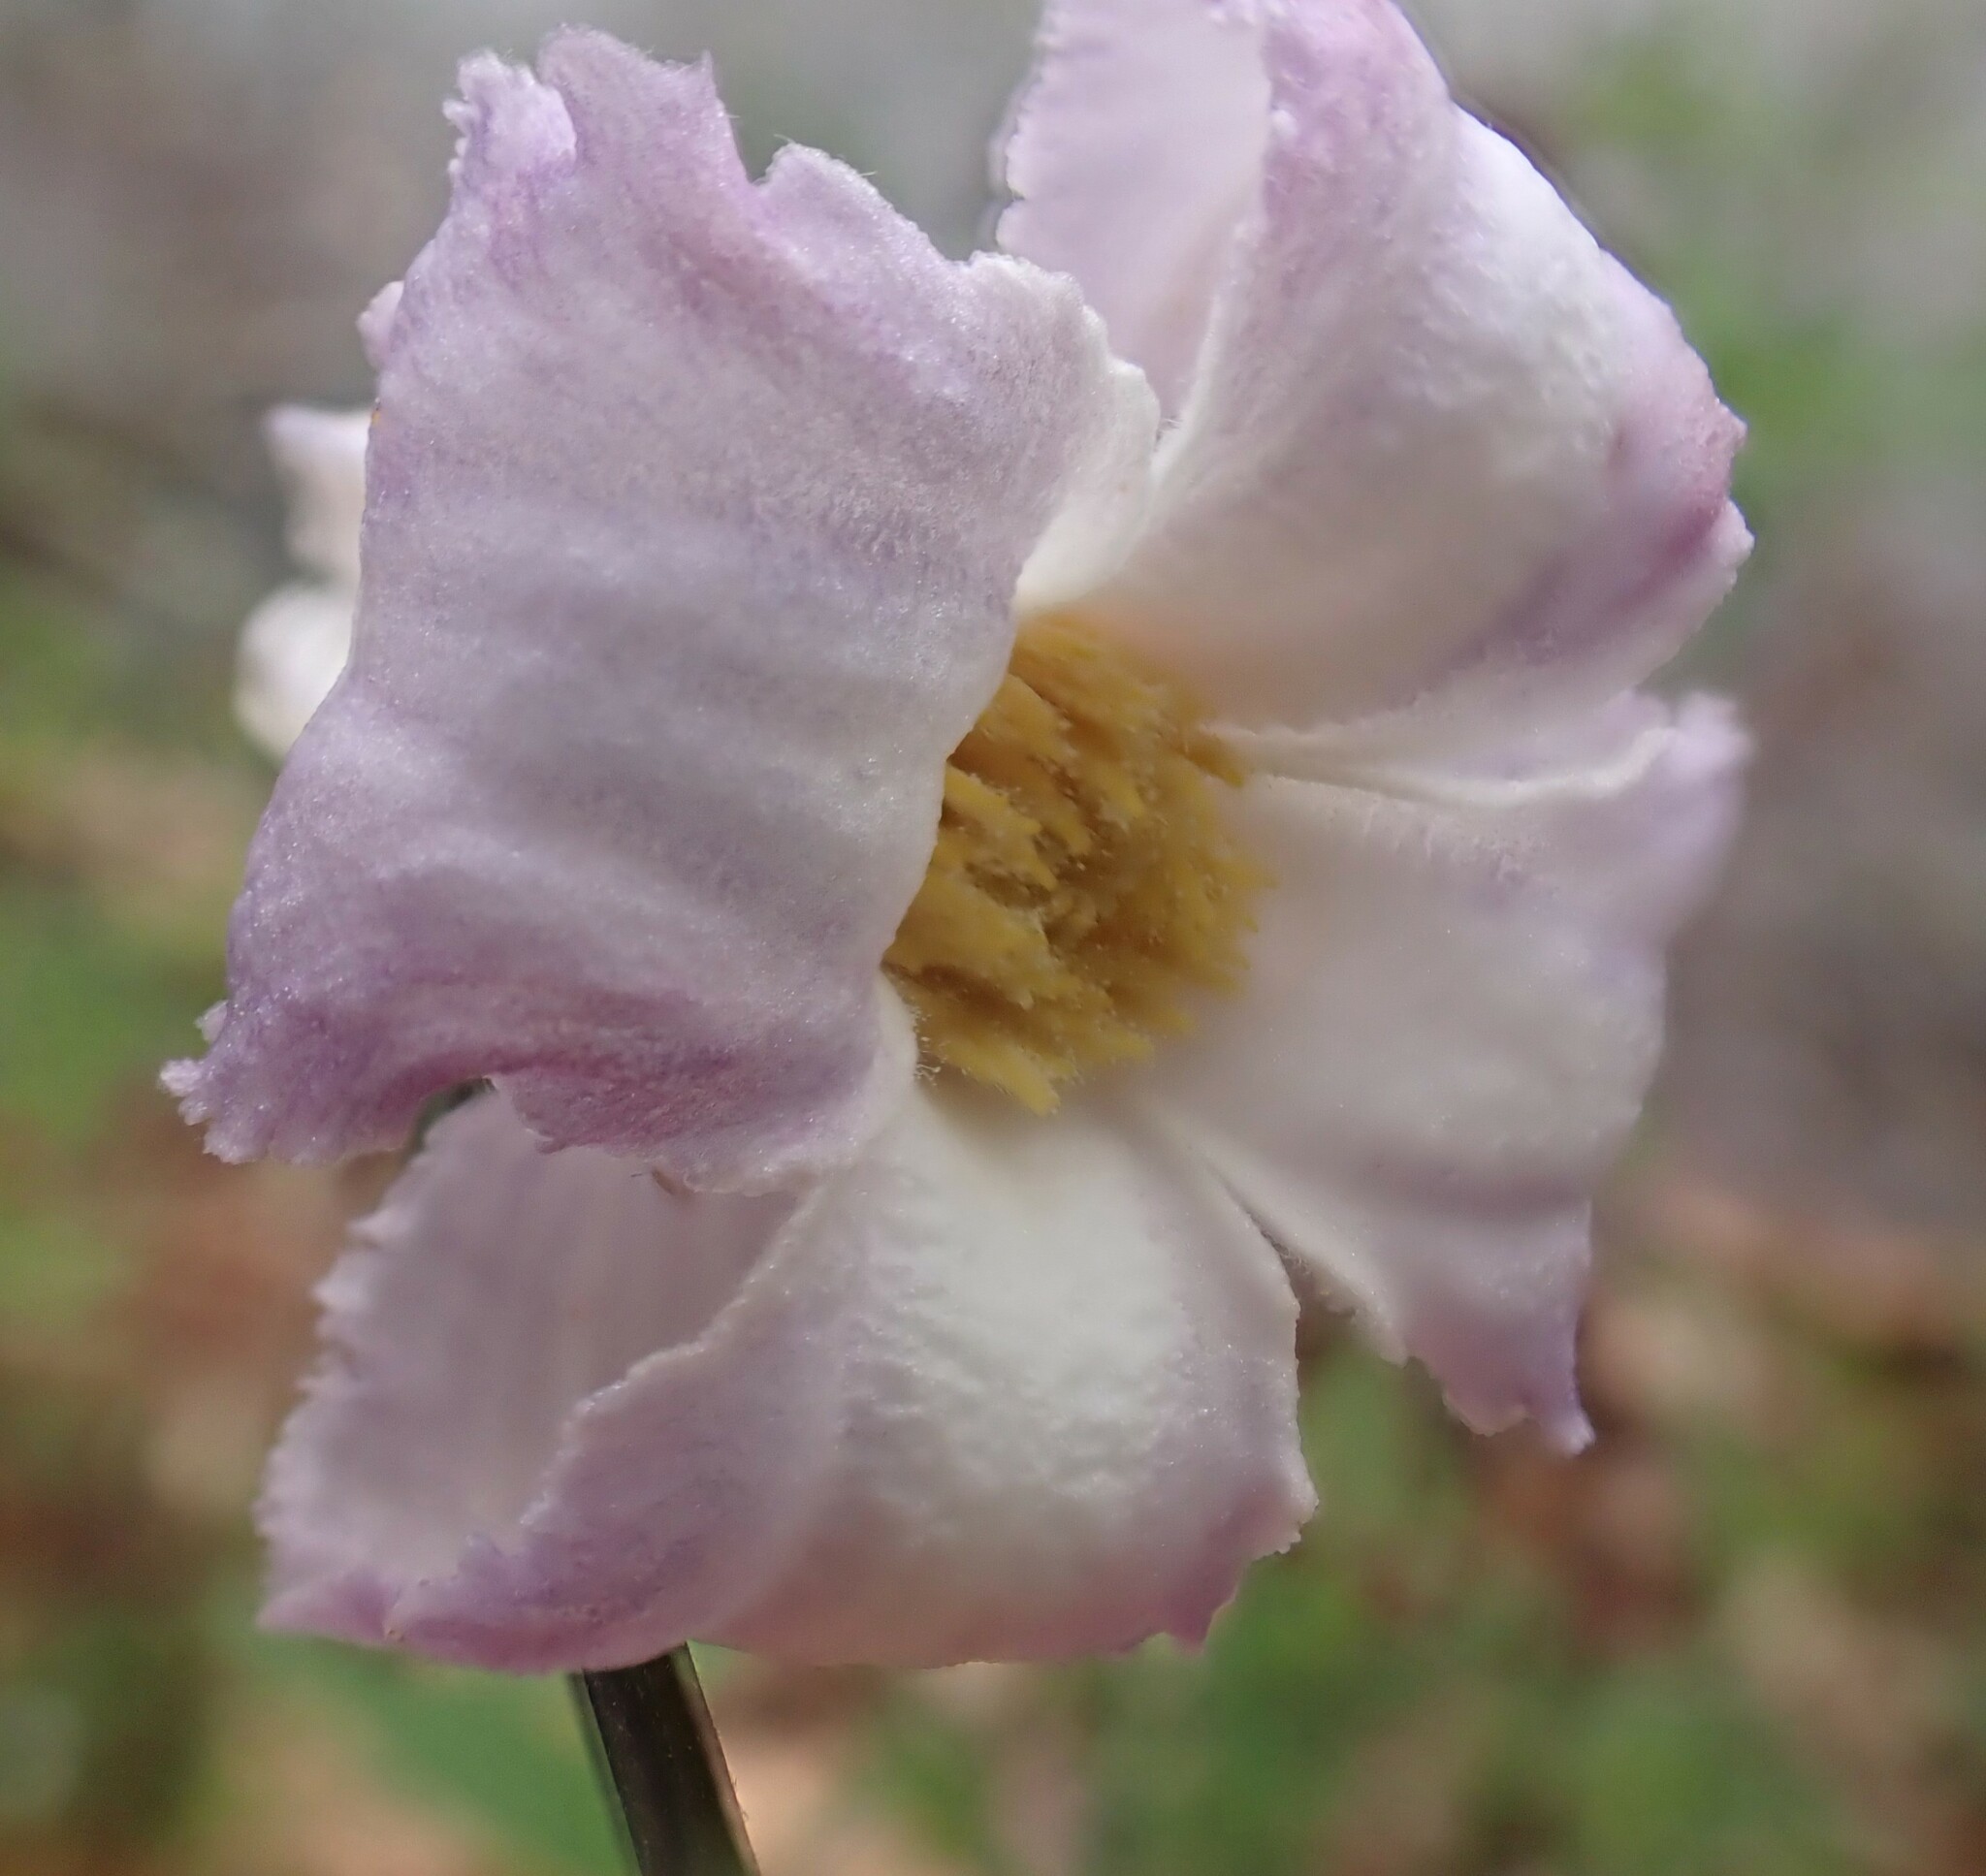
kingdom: Plantae
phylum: Tracheophyta
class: Magnoliopsida
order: Ranunculales
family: Ranunculaceae
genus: Clematis
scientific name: Clematis crispa
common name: Curly clematis
